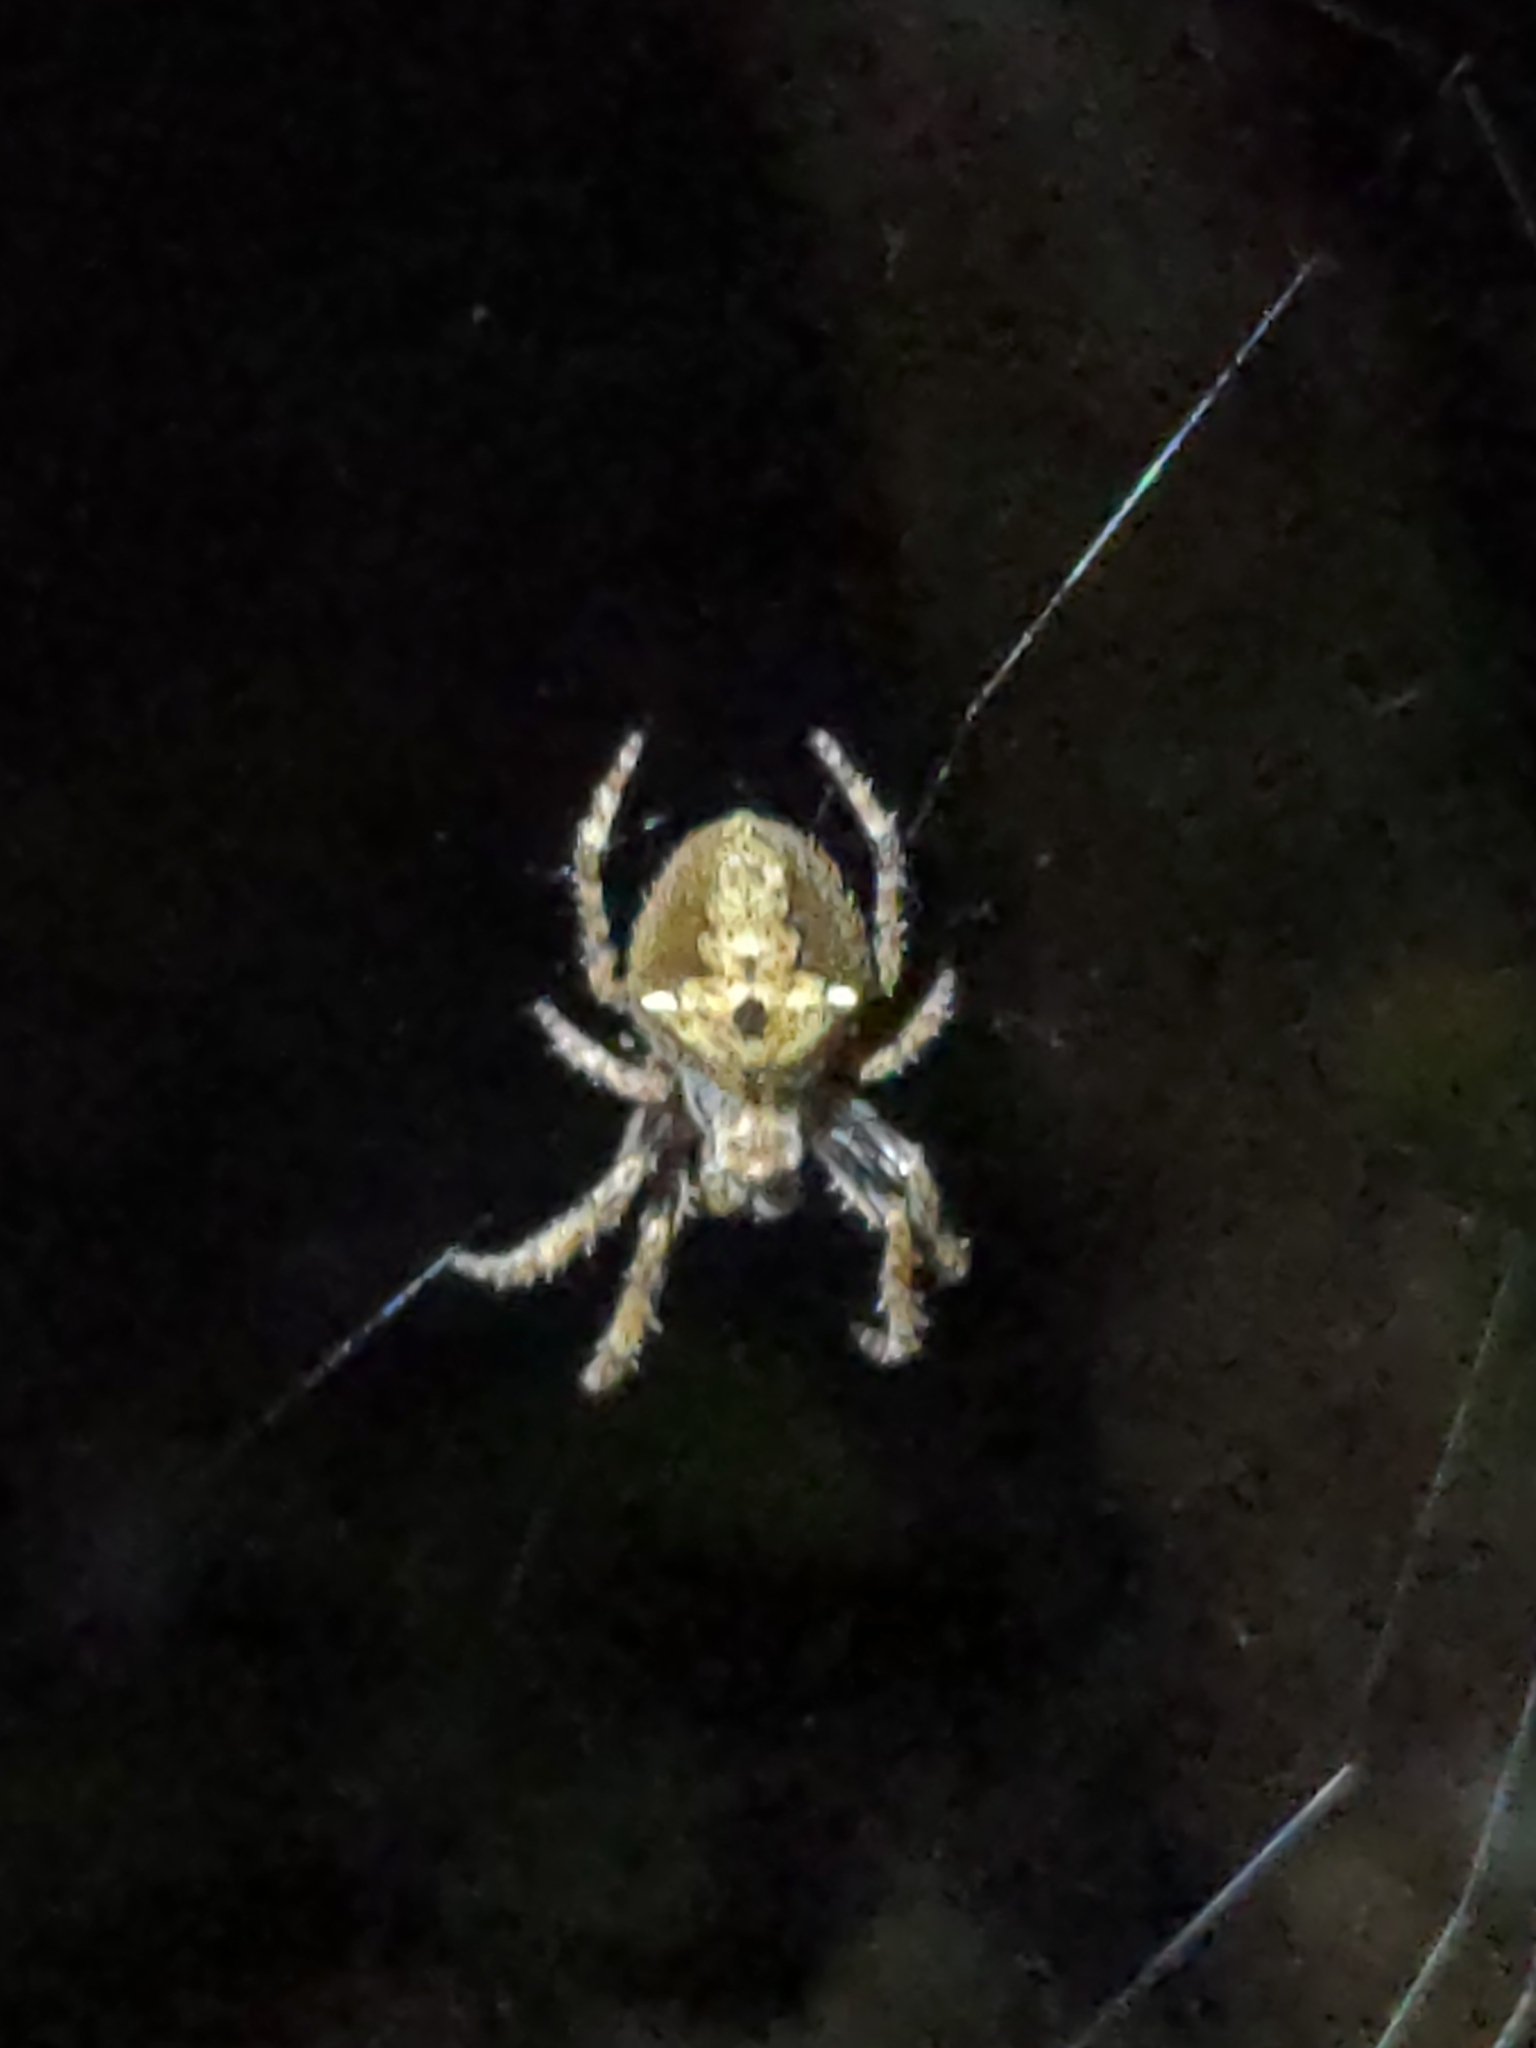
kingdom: Animalia
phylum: Arthropoda
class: Arachnida
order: Araneae
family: Araneidae
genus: Eriophora
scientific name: Eriophora pustulosa
